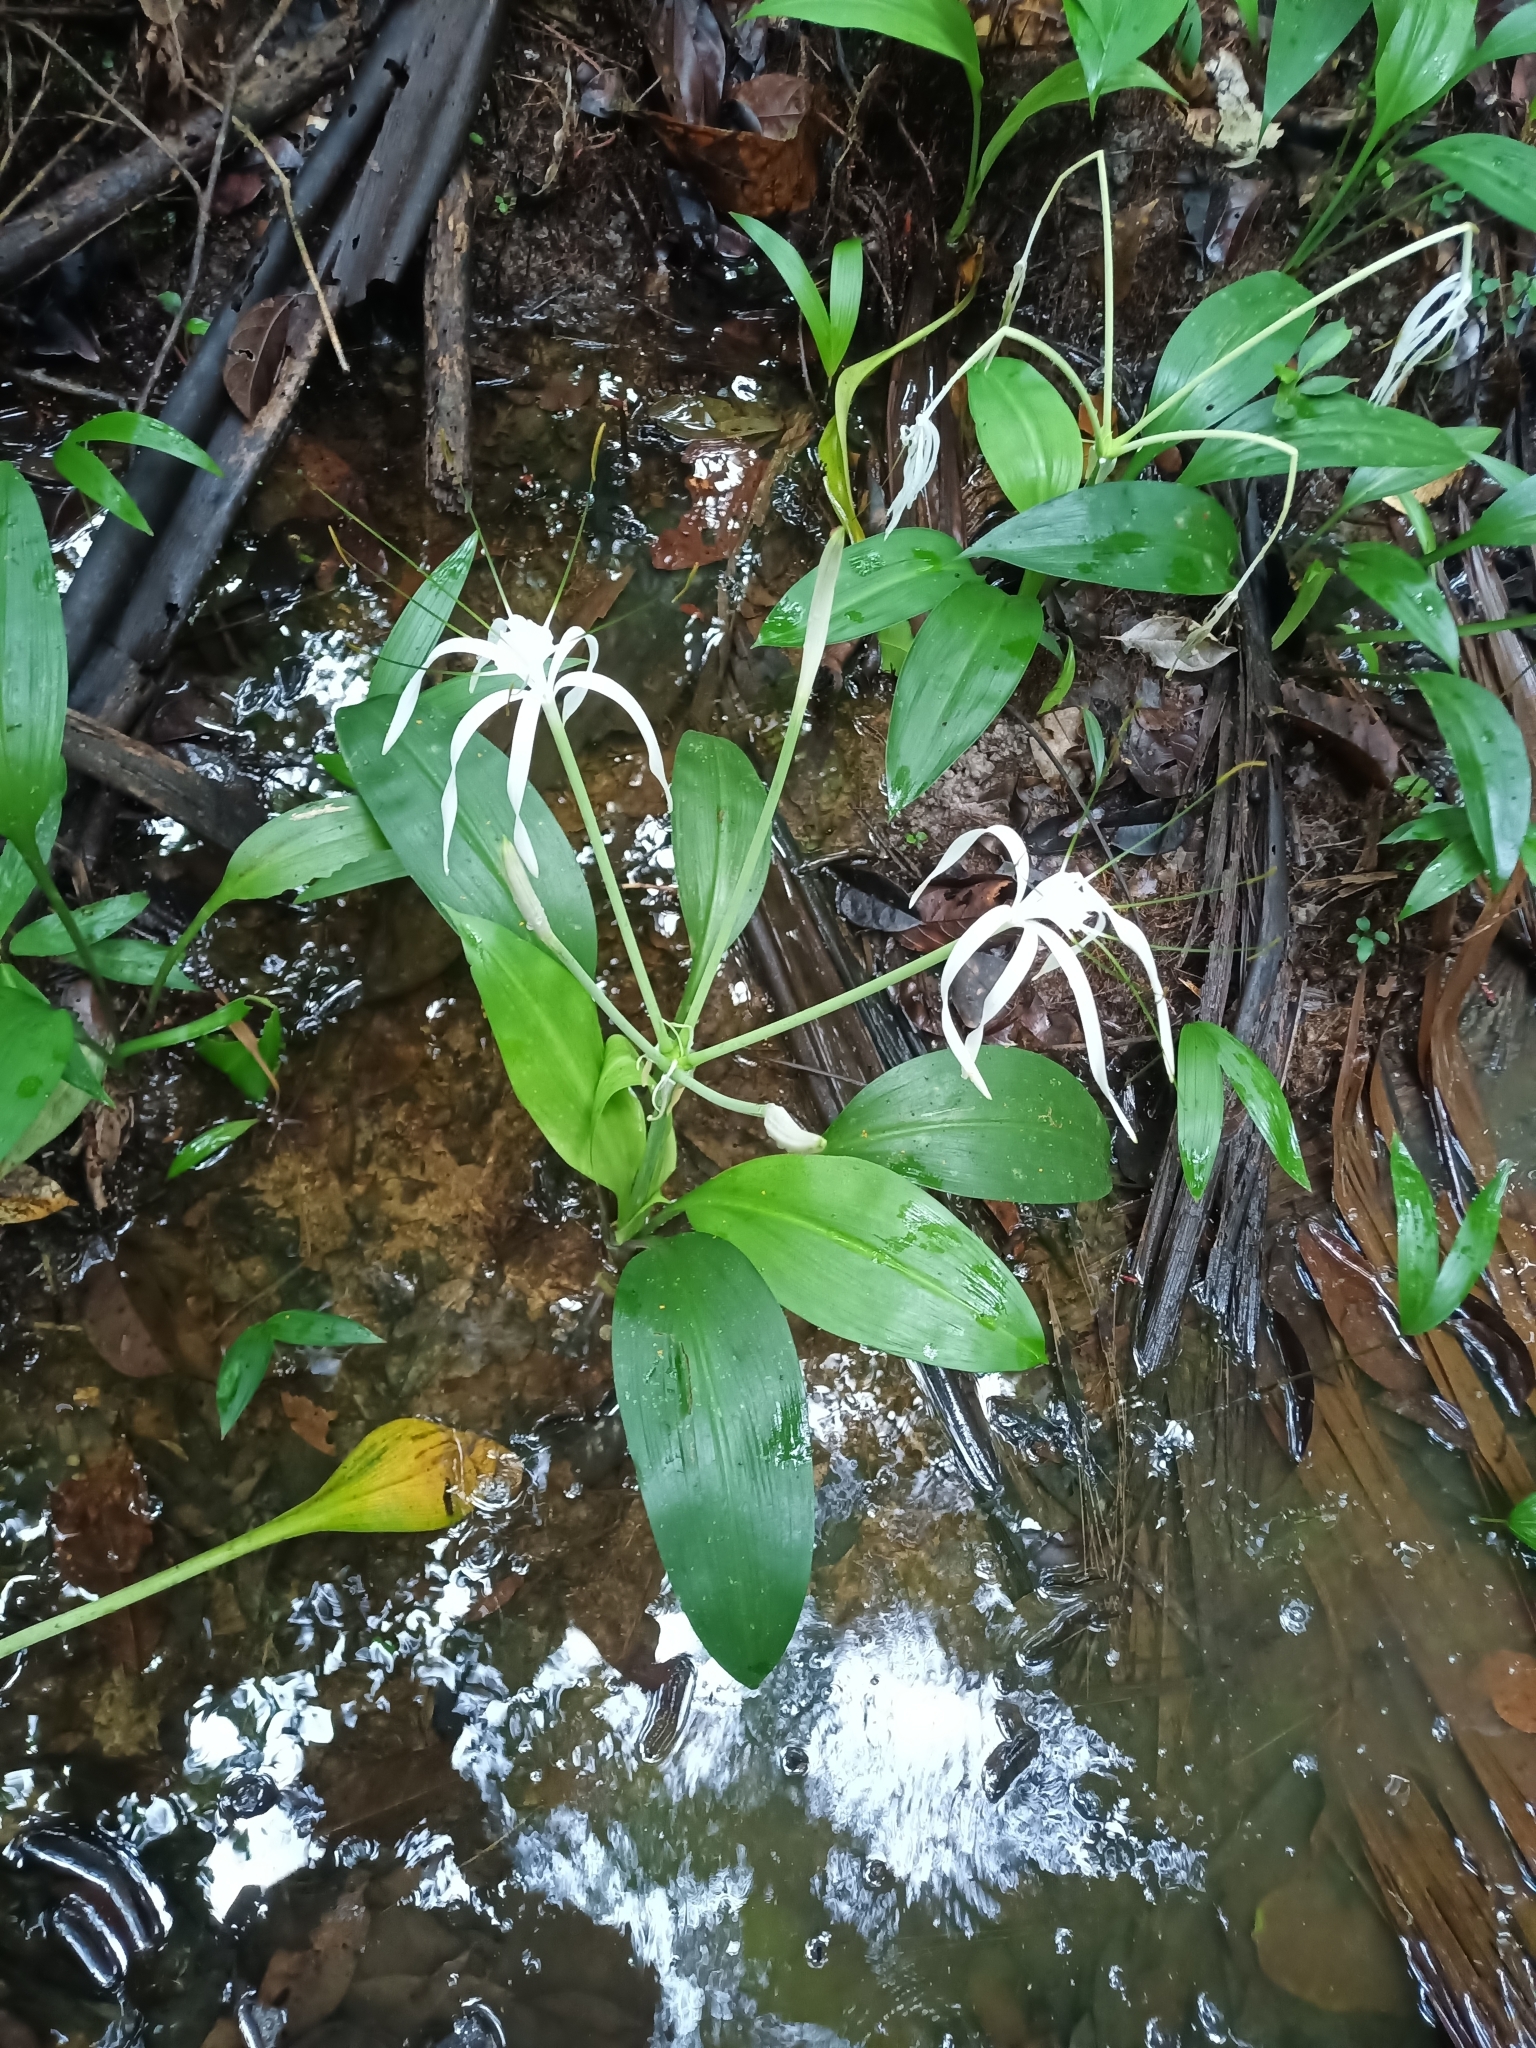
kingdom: Plantae
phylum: Tracheophyta
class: Liliopsida
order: Asparagales
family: Amaryllidaceae
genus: Hymenocallis
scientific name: Hymenocallis tubiflora
